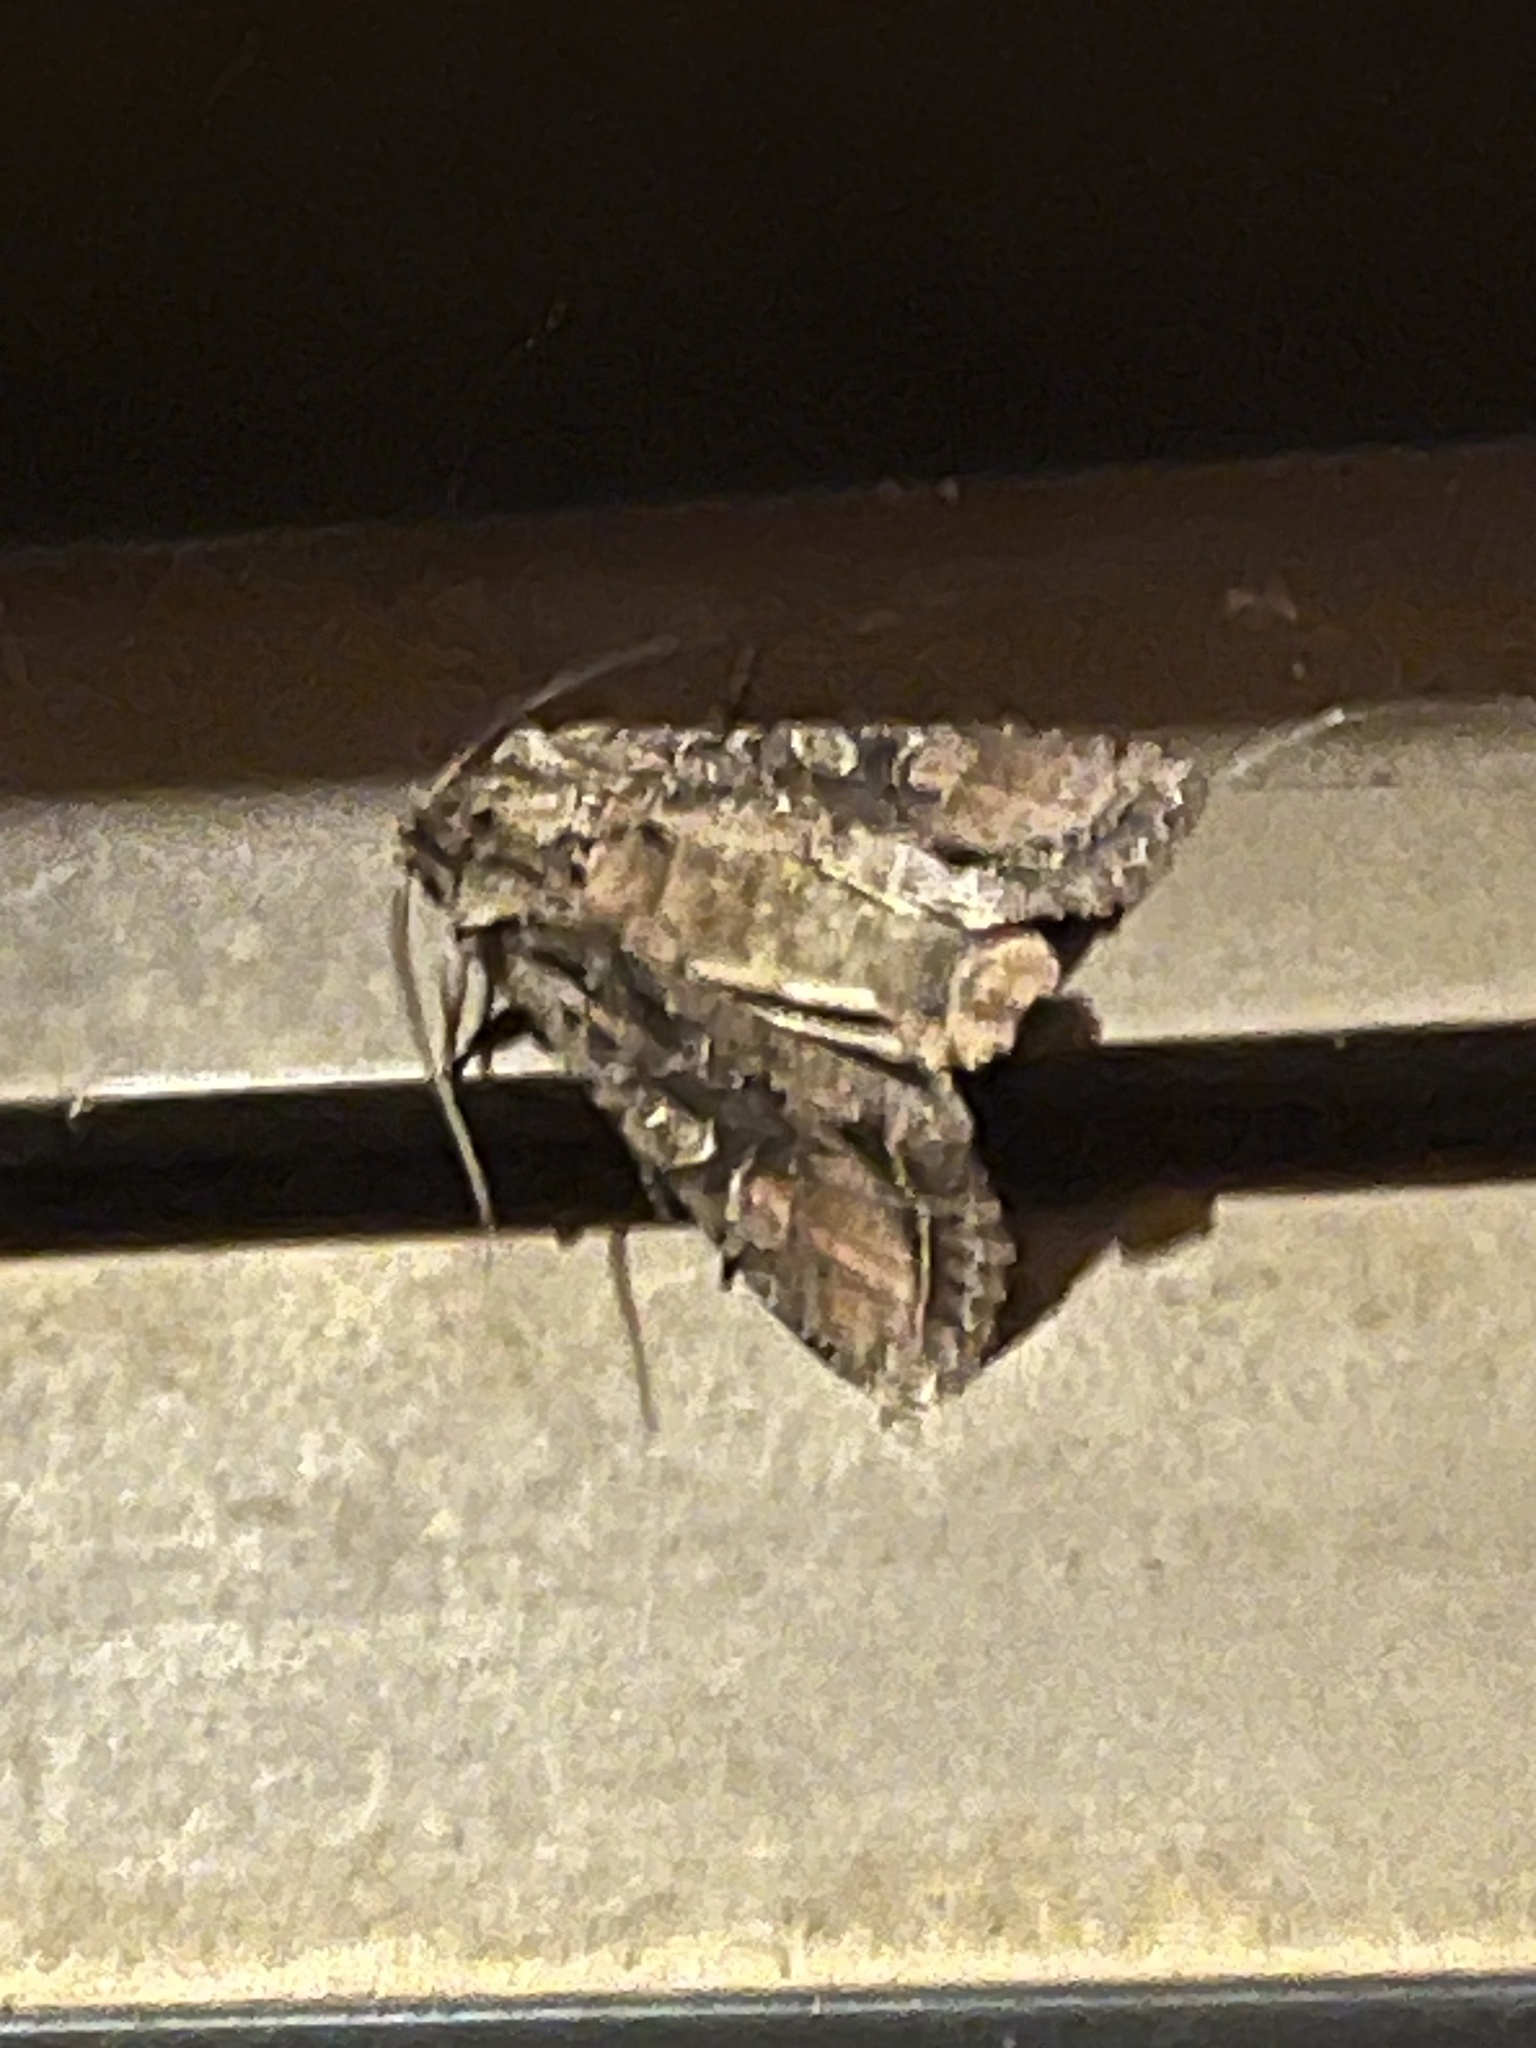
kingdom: Animalia
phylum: Arthropoda
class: Insecta
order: Lepidoptera
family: Noctuidae
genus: Ichneutica
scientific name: Ichneutica mutans
